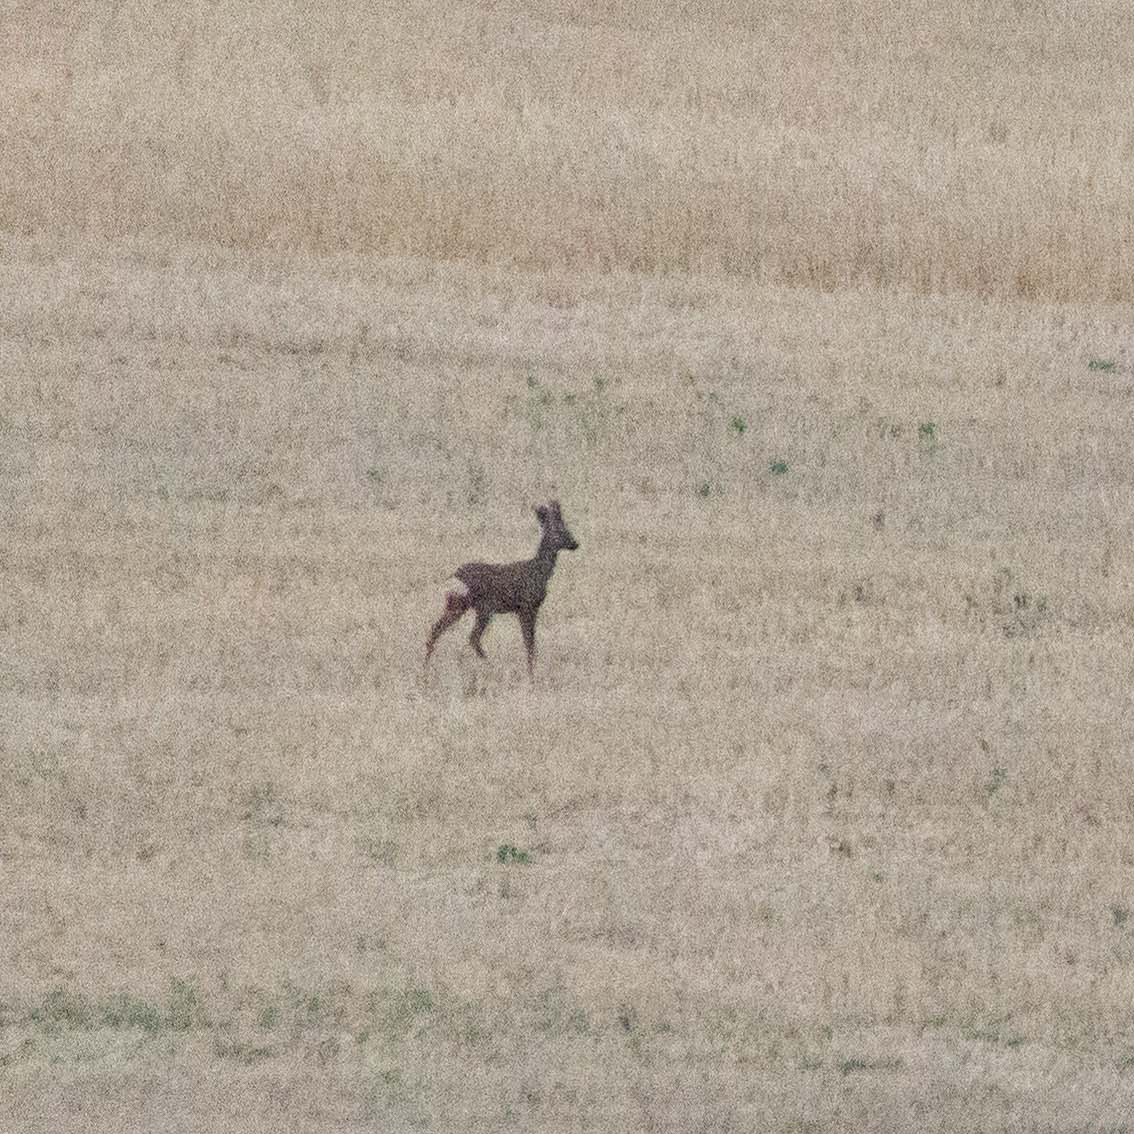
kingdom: Animalia
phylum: Chordata
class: Mammalia
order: Artiodactyla
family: Cervidae
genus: Capreolus
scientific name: Capreolus capreolus
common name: Western roe deer
